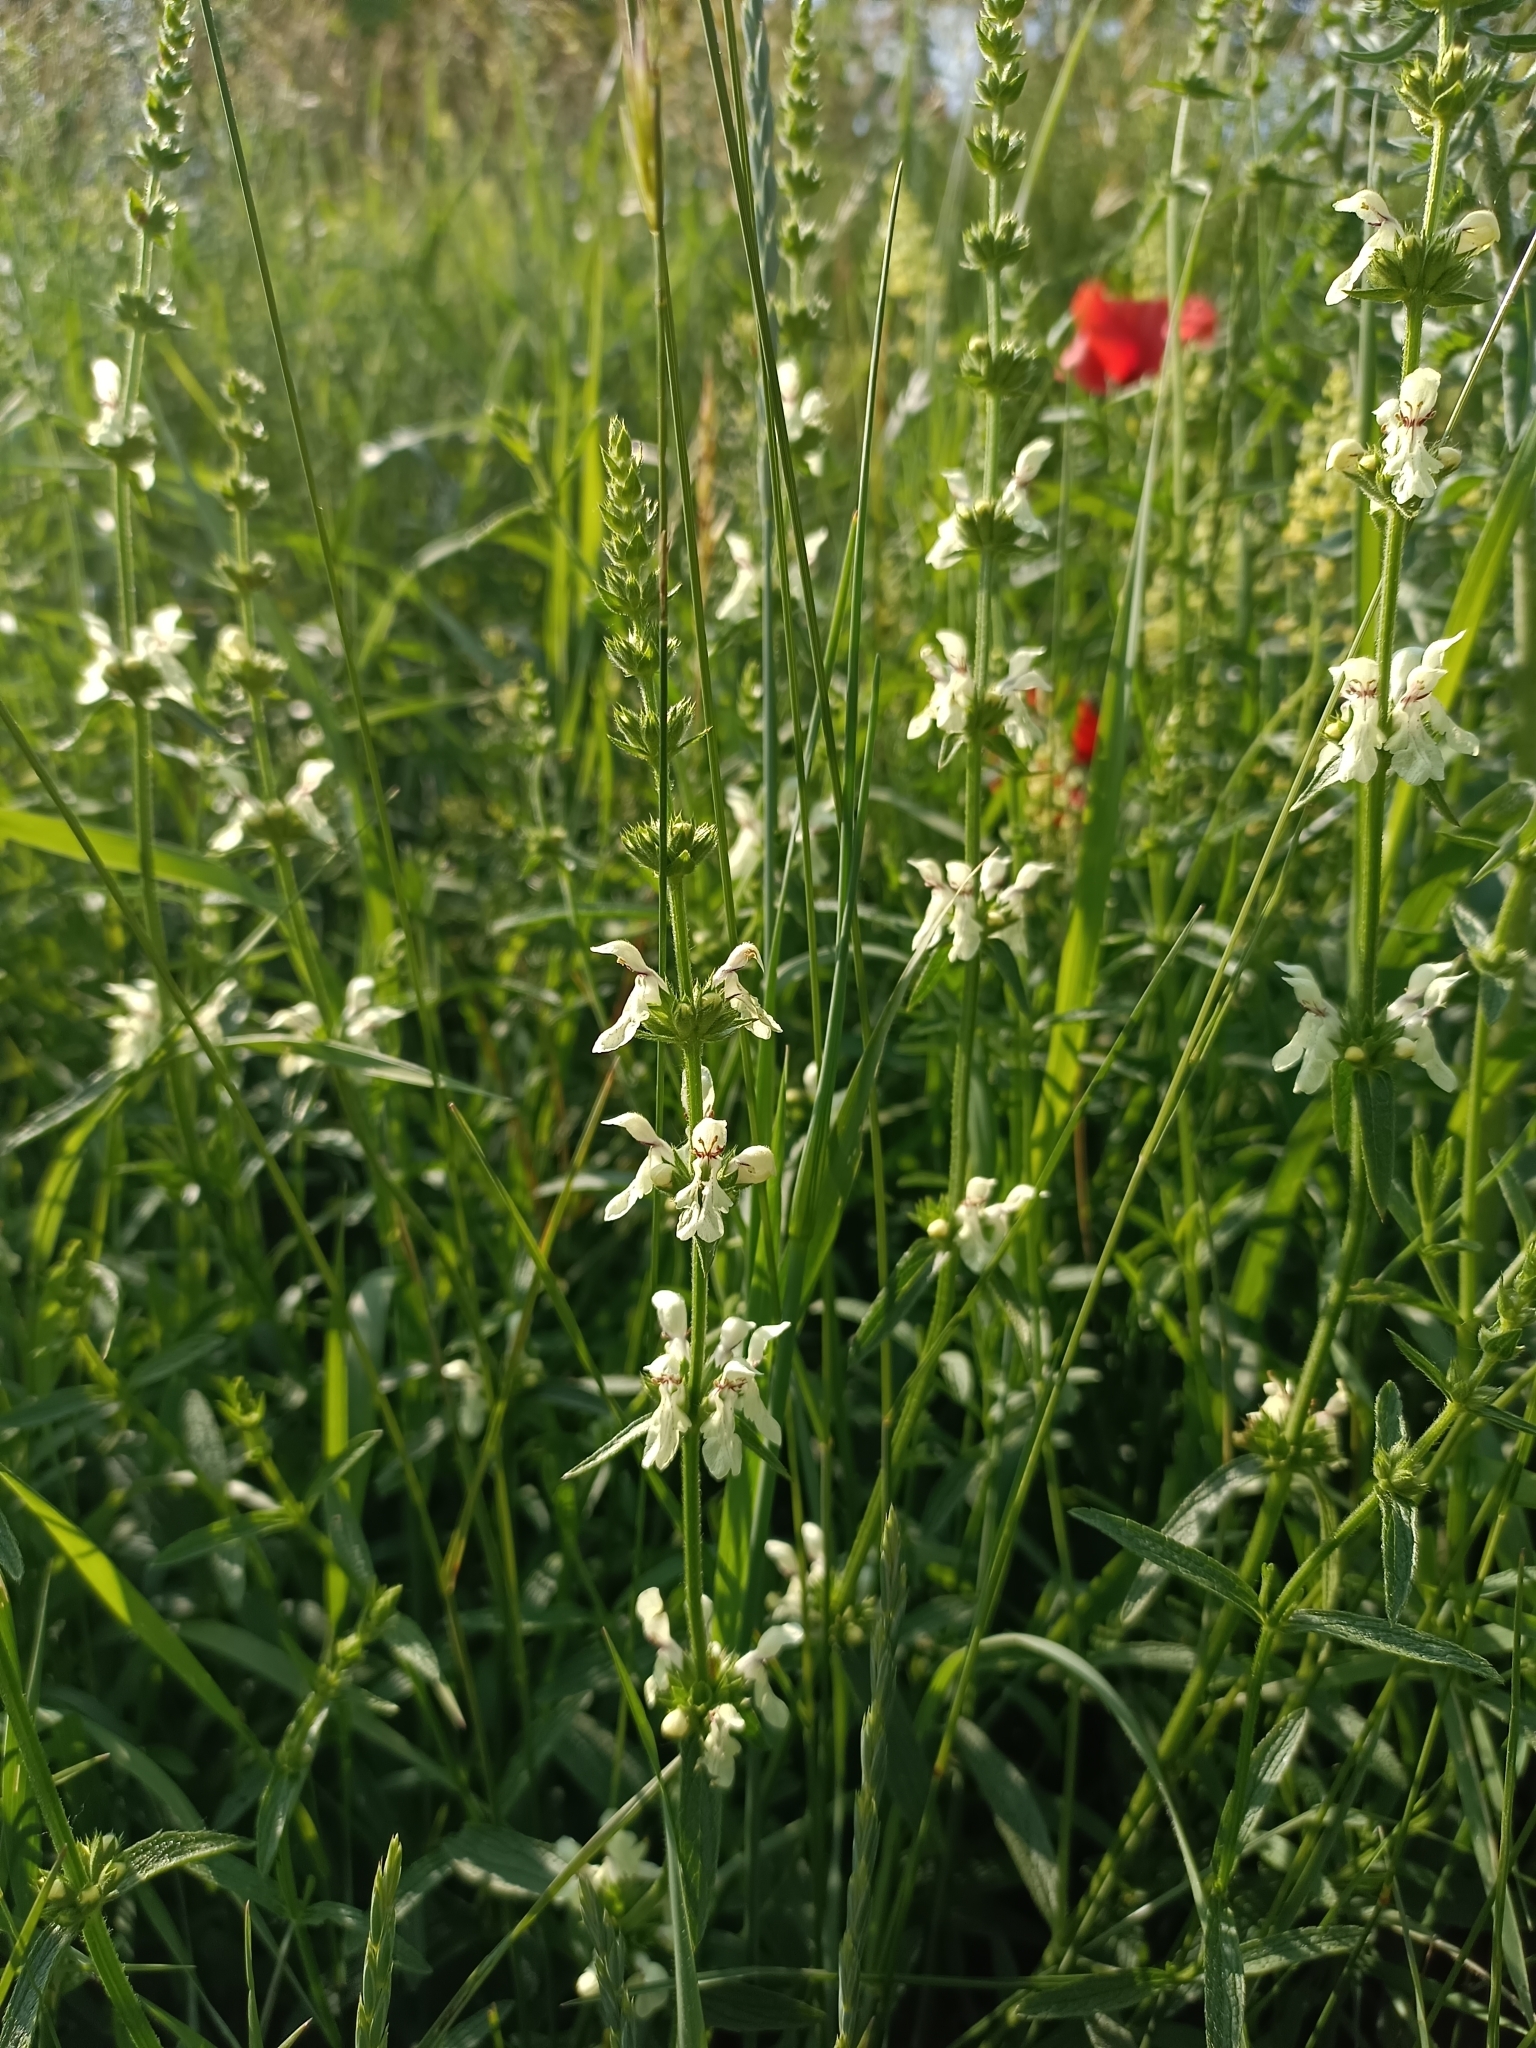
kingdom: Plantae
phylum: Tracheophyta
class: Magnoliopsida
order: Lamiales
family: Lamiaceae
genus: Stachys
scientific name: Stachys recta
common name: Perennial yellow-woundwort
